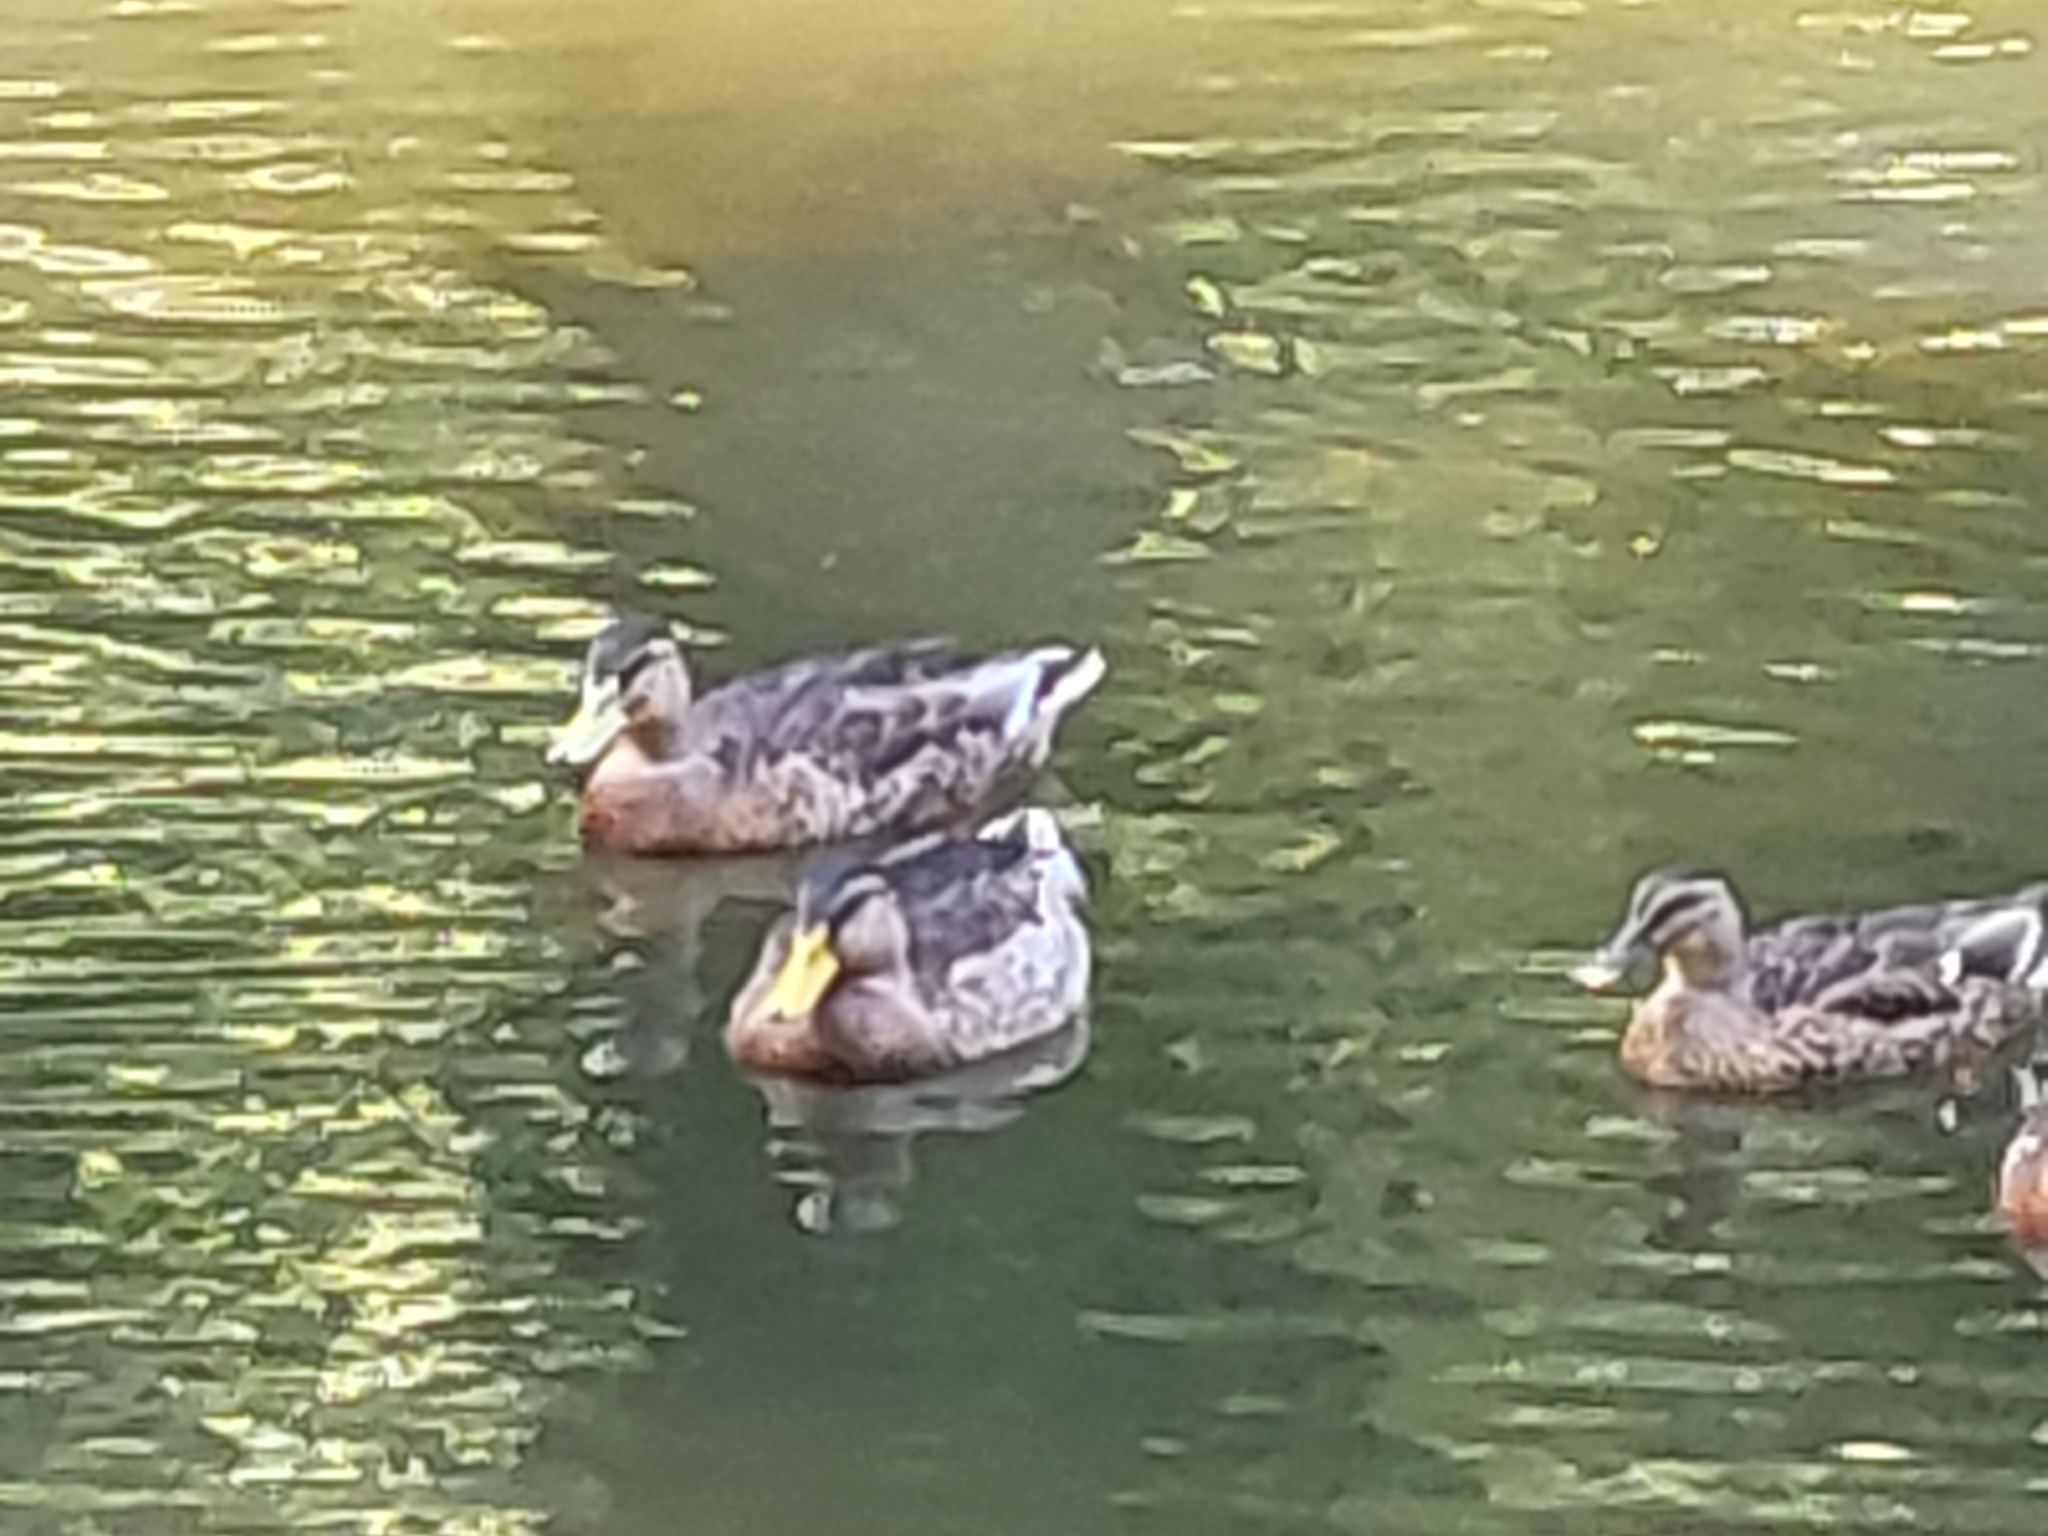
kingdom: Animalia
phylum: Chordata
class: Aves
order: Anseriformes
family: Anatidae
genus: Anas
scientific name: Anas platyrhynchos
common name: Mallard
